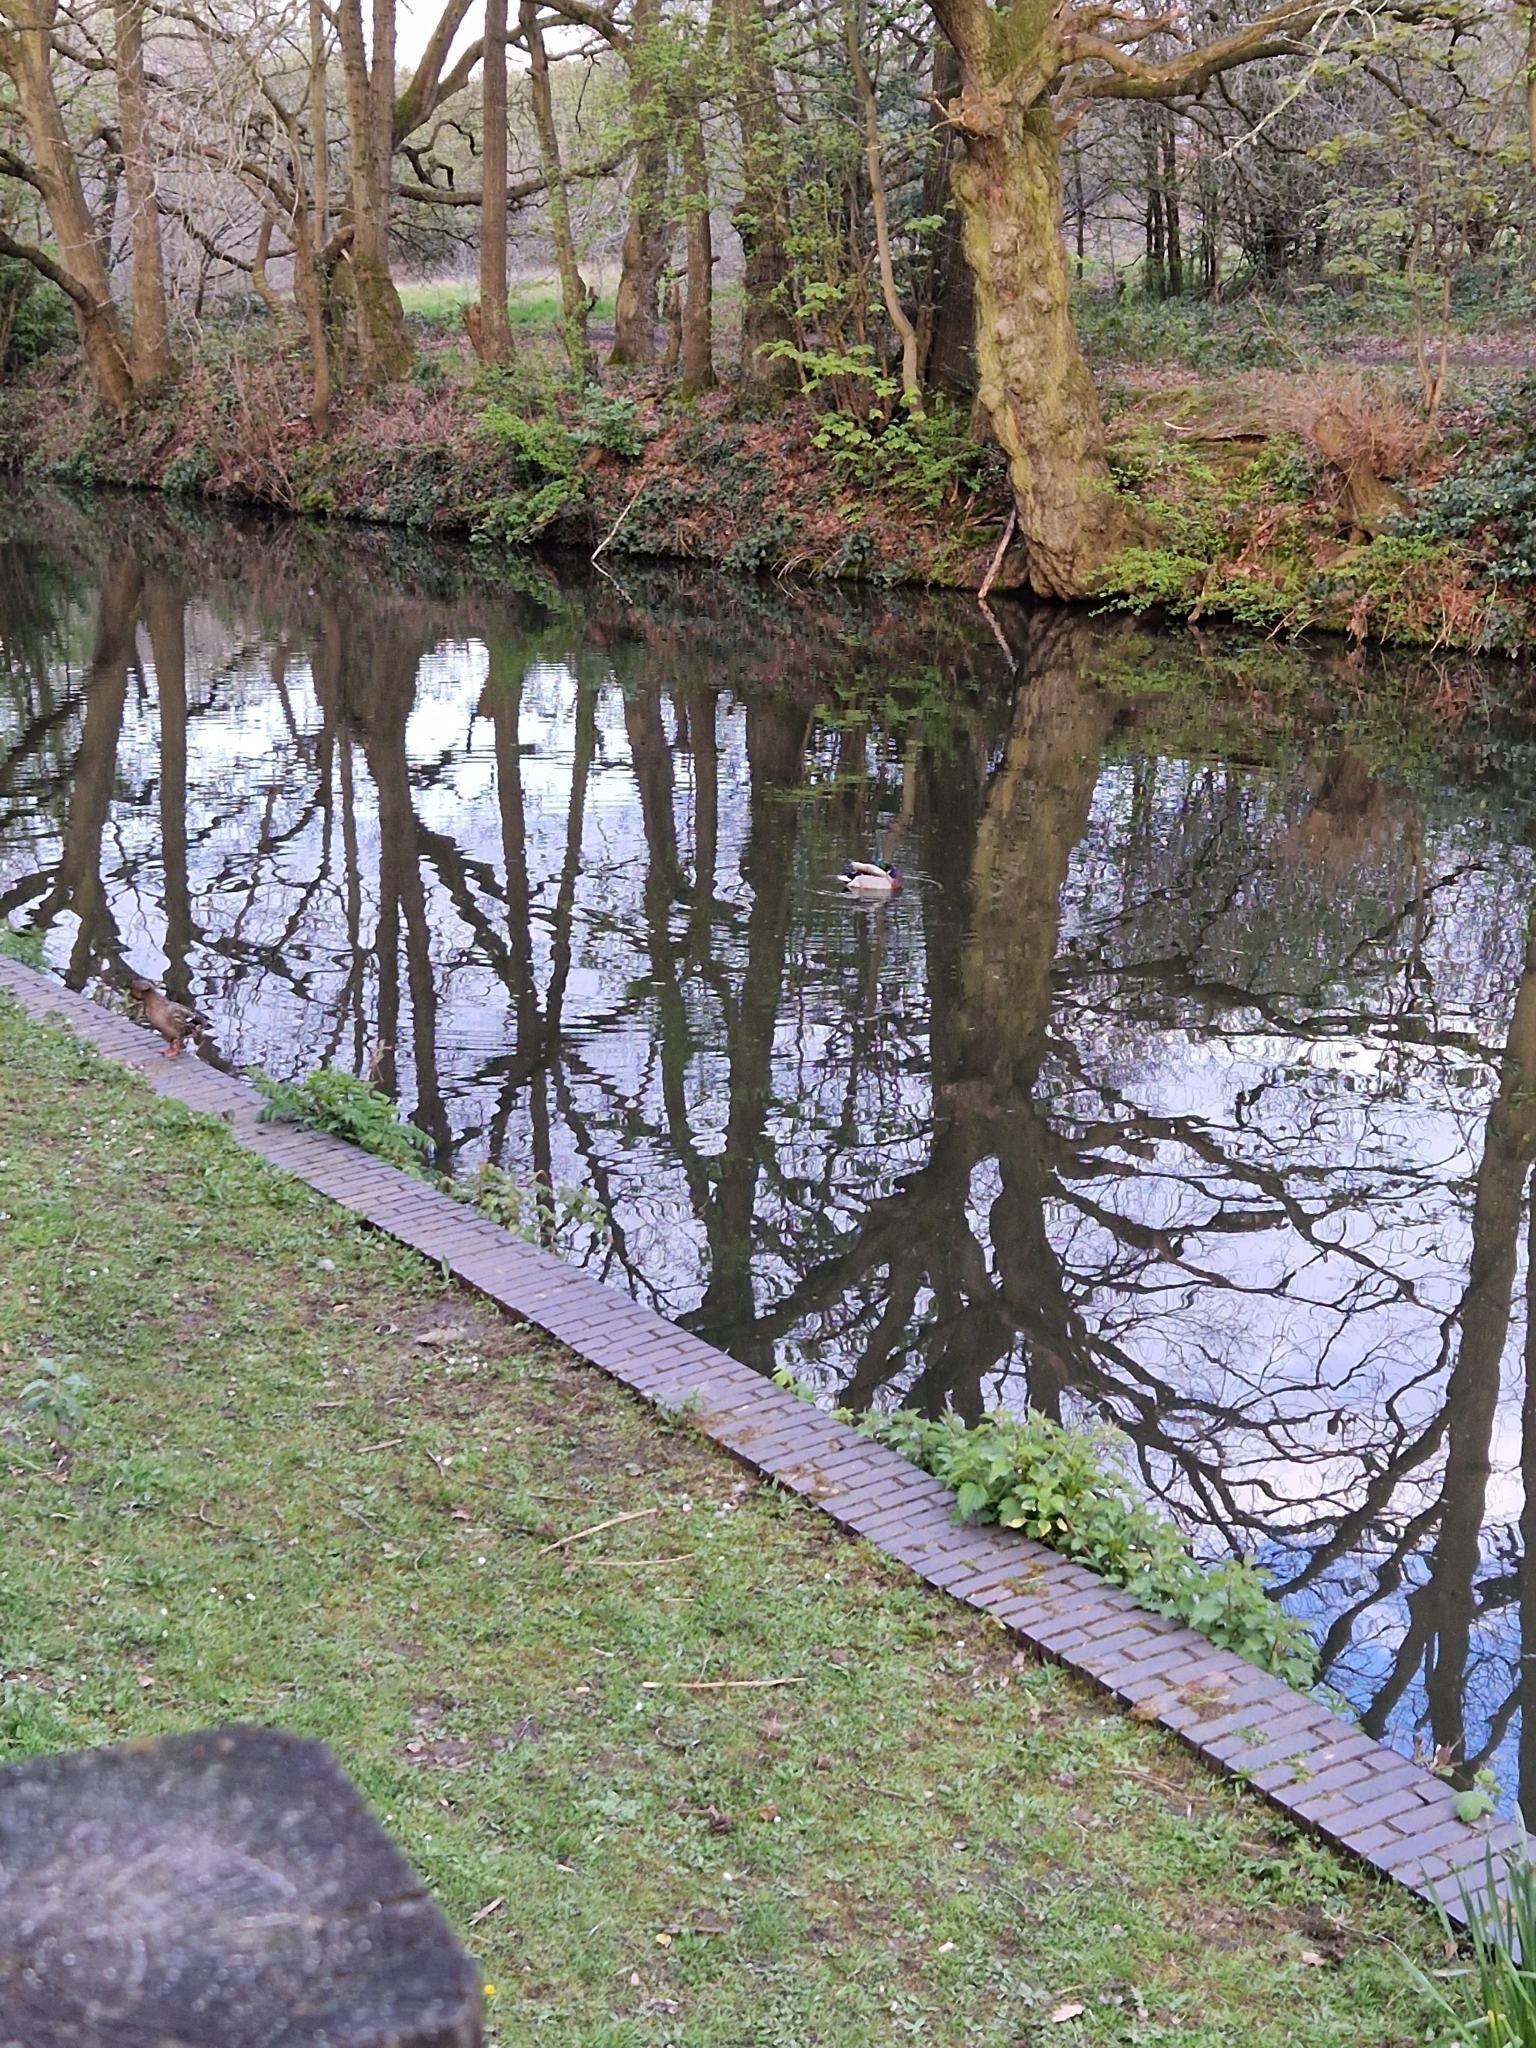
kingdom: Animalia
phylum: Chordata
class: Aves
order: Anseriformes
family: Anatidae
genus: Anas
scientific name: Anas platyrhynchos
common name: Mallard
